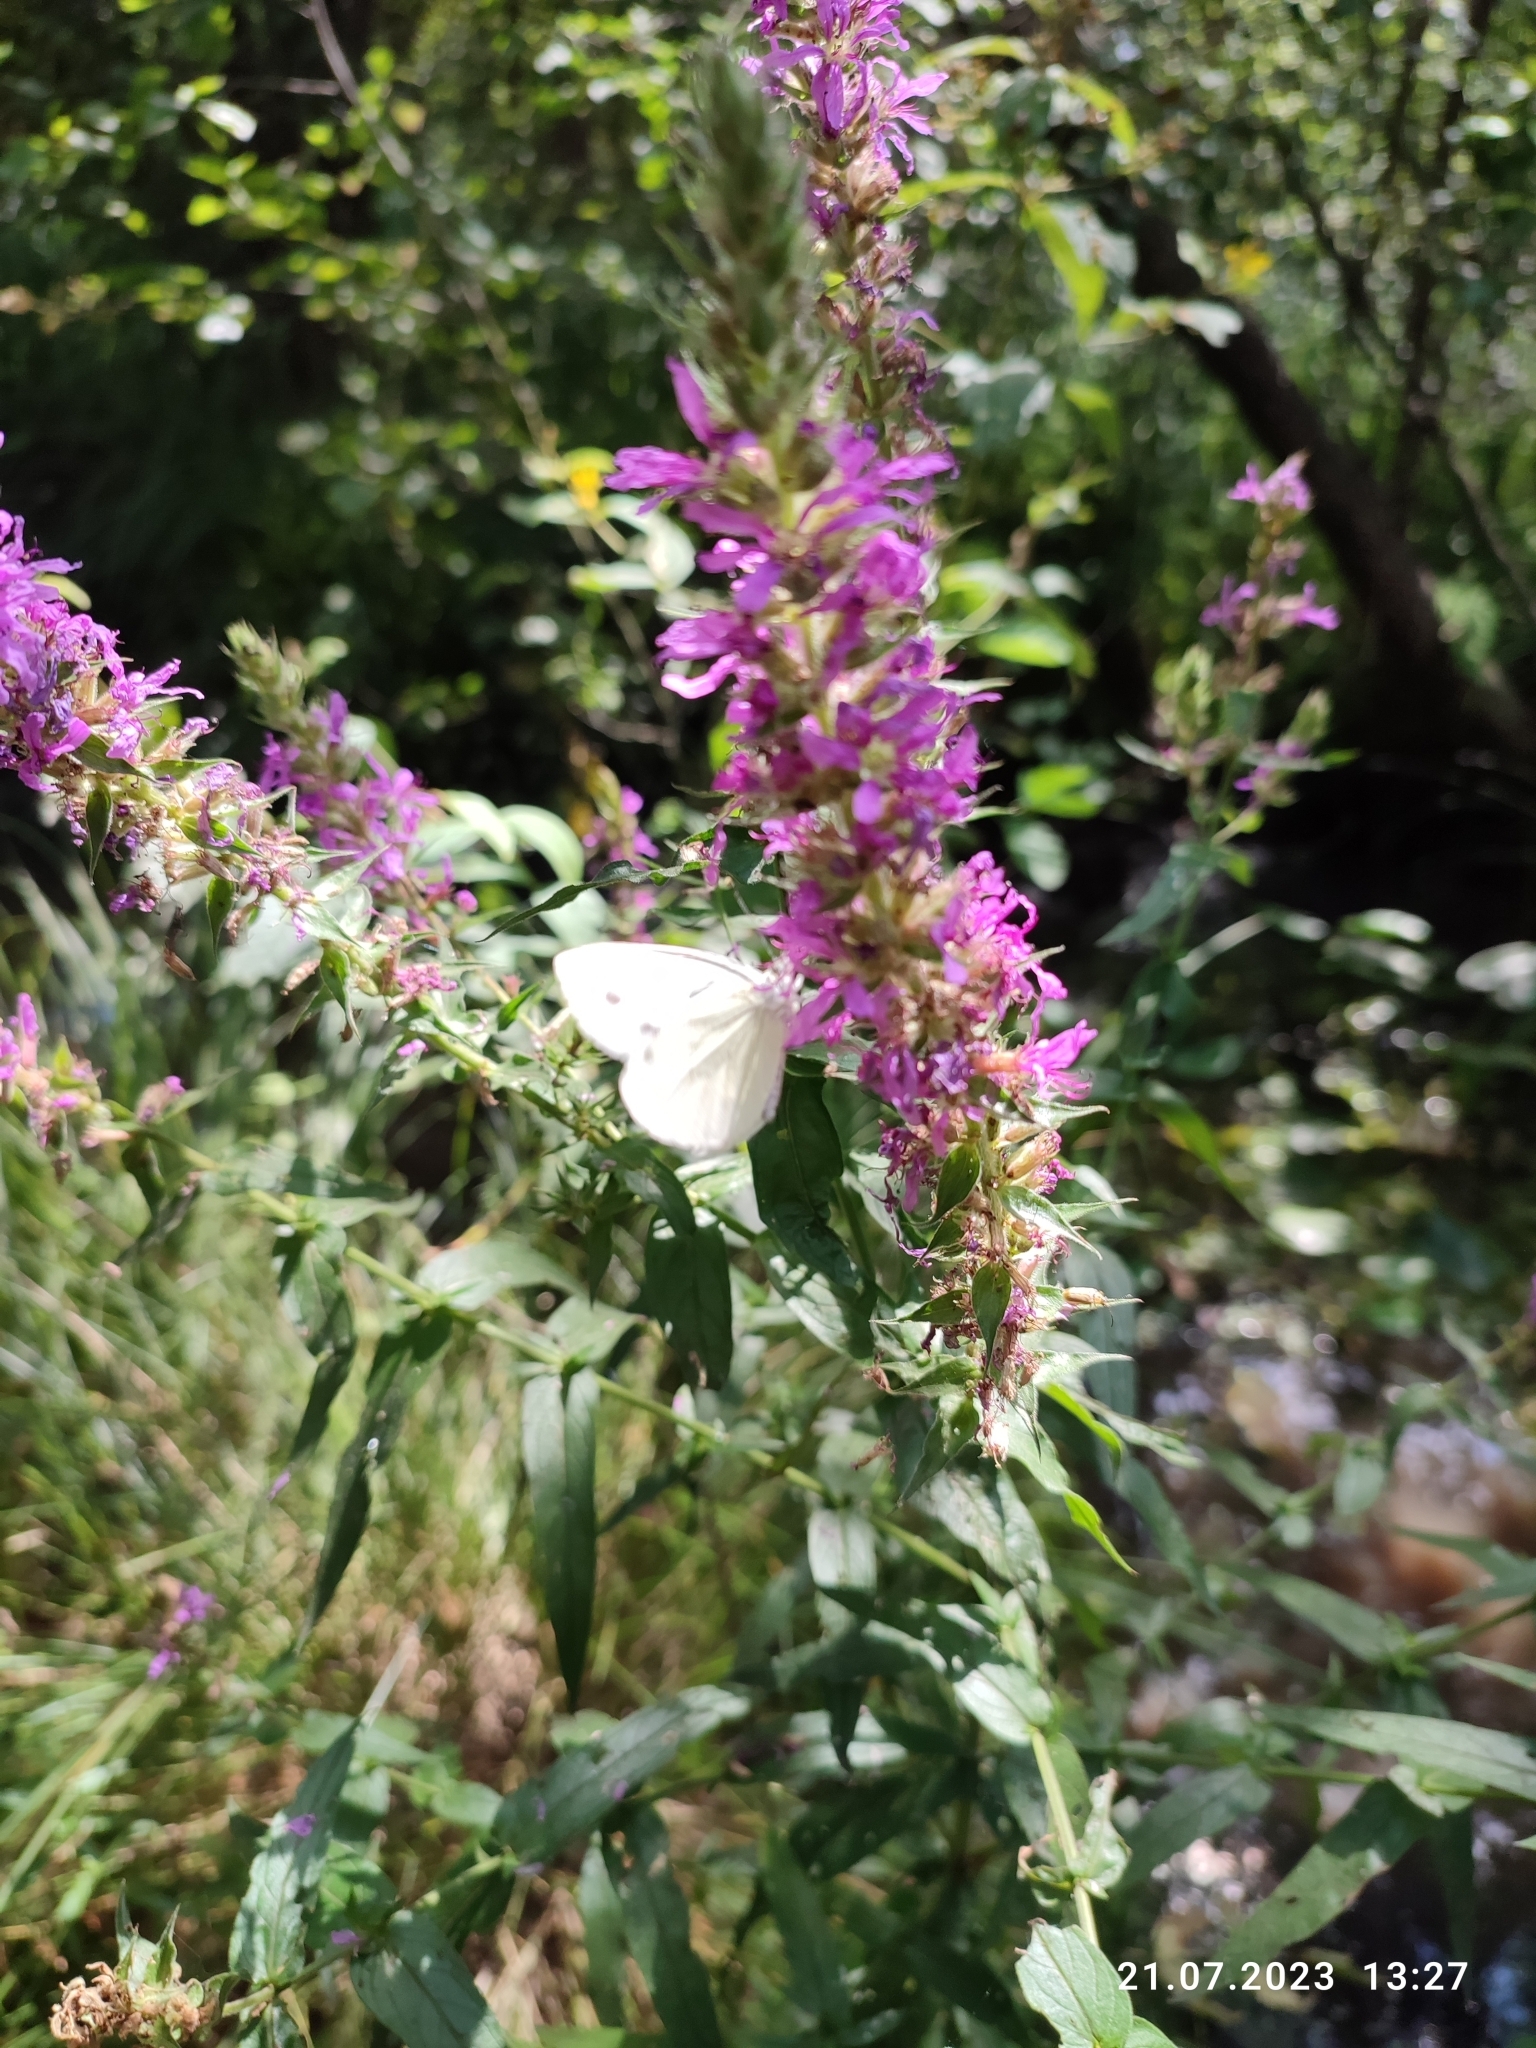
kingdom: Plantae
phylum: Tracheophyta
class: Magnoliopsida
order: Myrtales
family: Lythraceae
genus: Lythrum
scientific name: Lythrum salicaria
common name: Purple loosestrife
